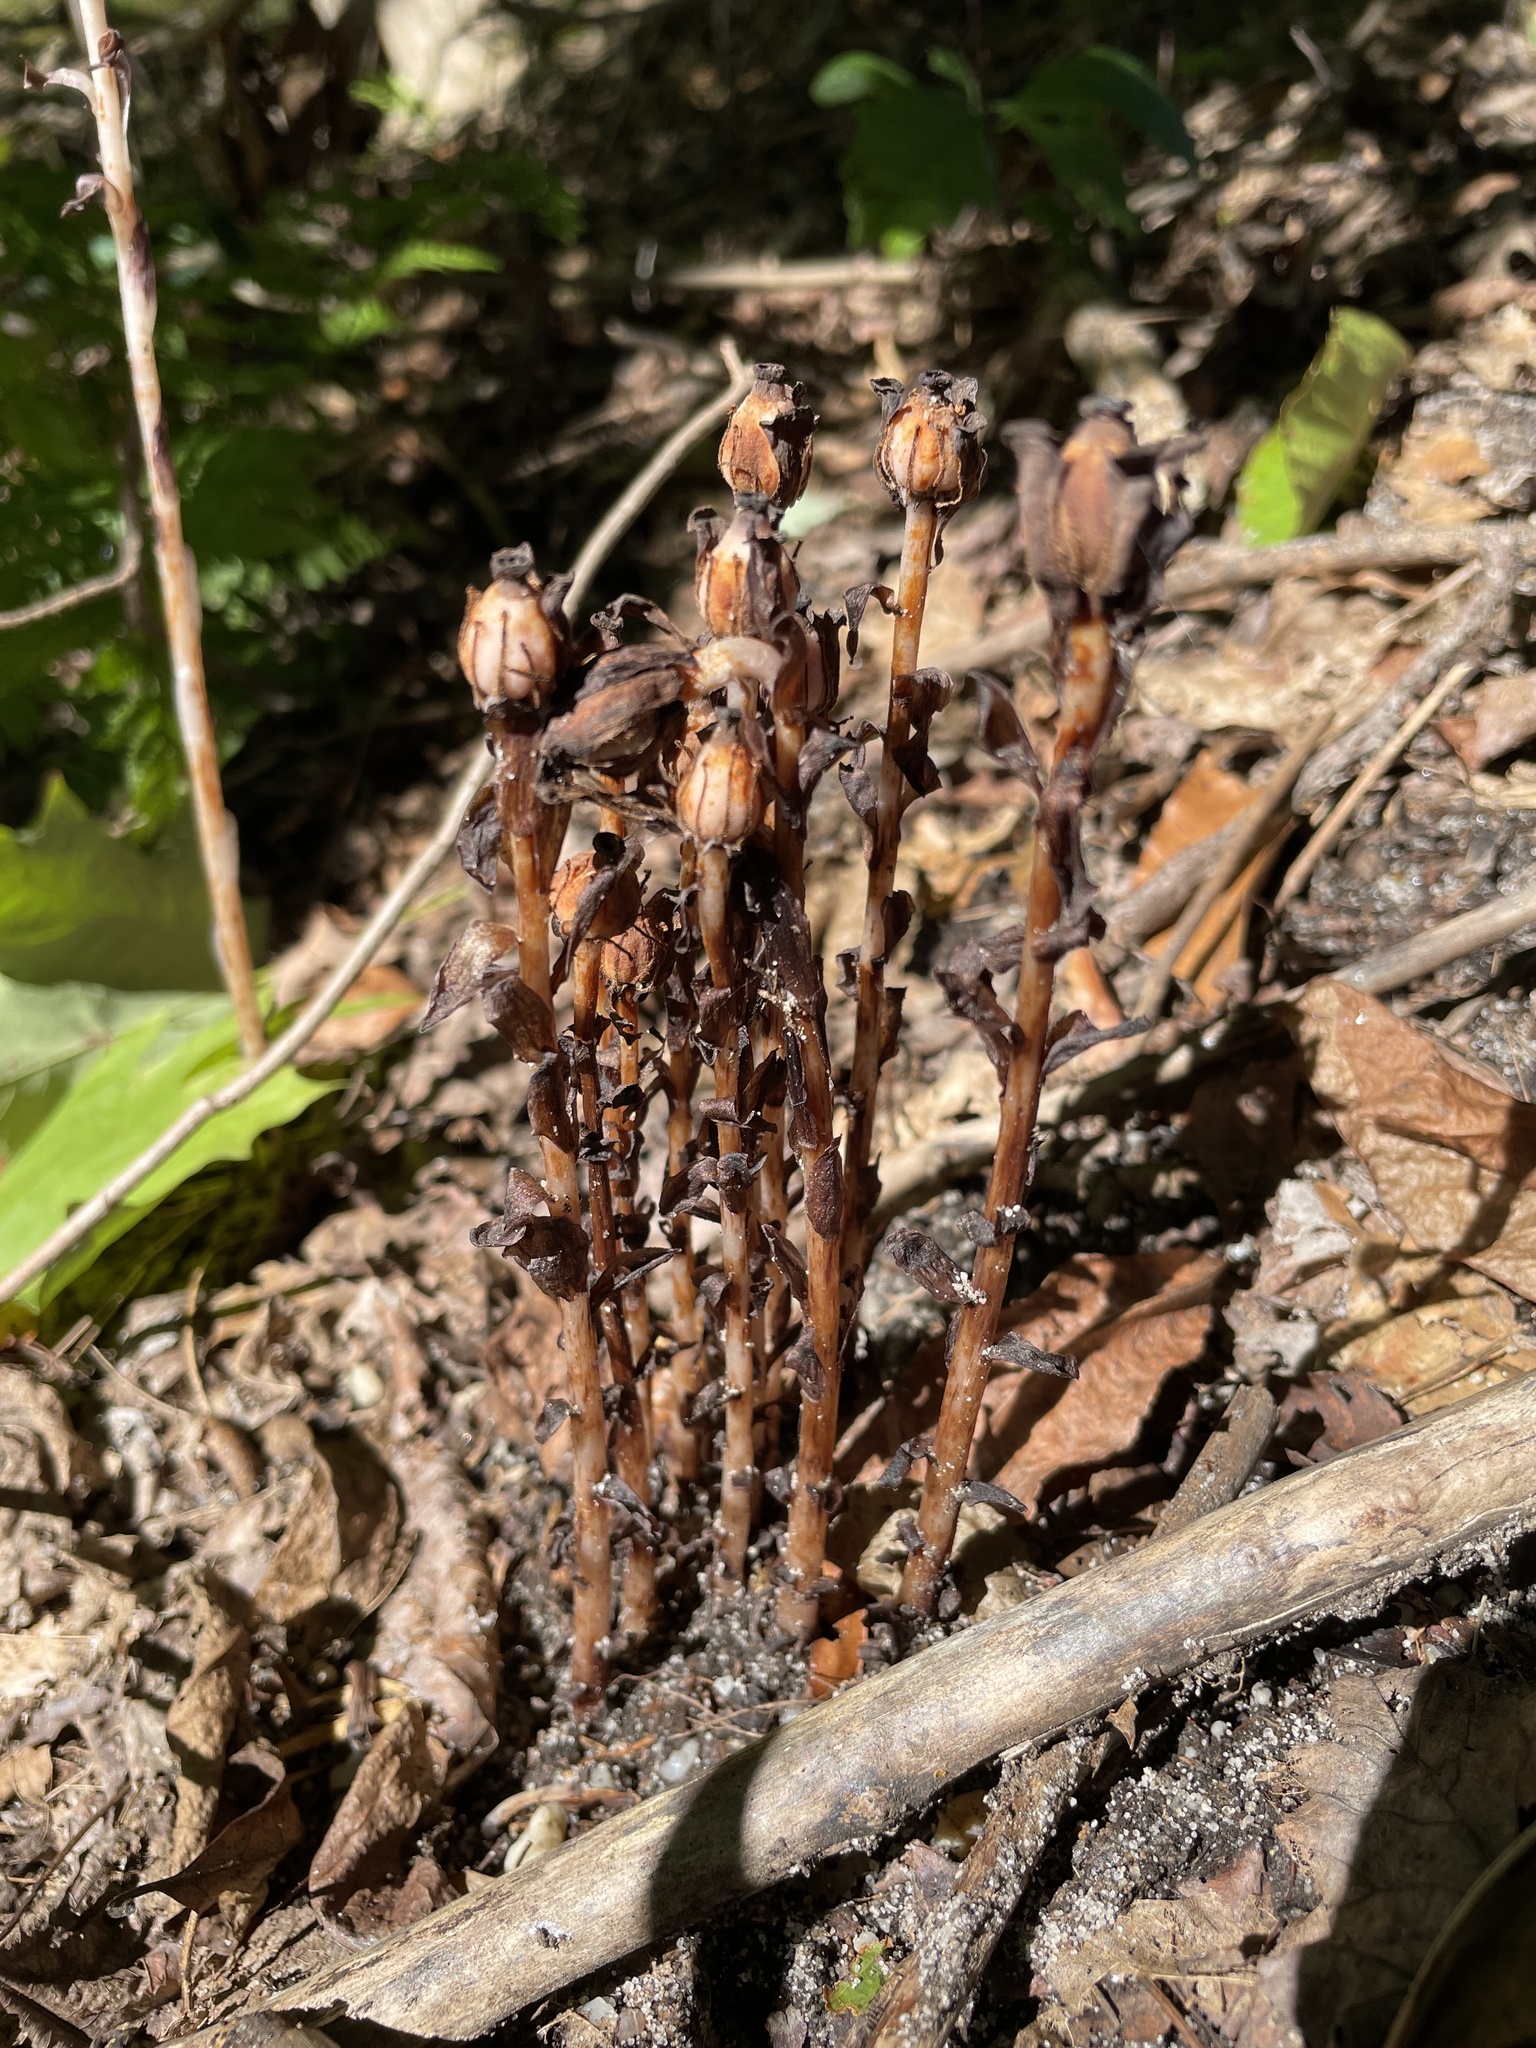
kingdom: Plantae
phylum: Tracheophyta
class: Magnoliopsida
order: Ericales
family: Ericaceae
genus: Monotropa
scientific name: Monotropa uniflora
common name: Convulsion root
